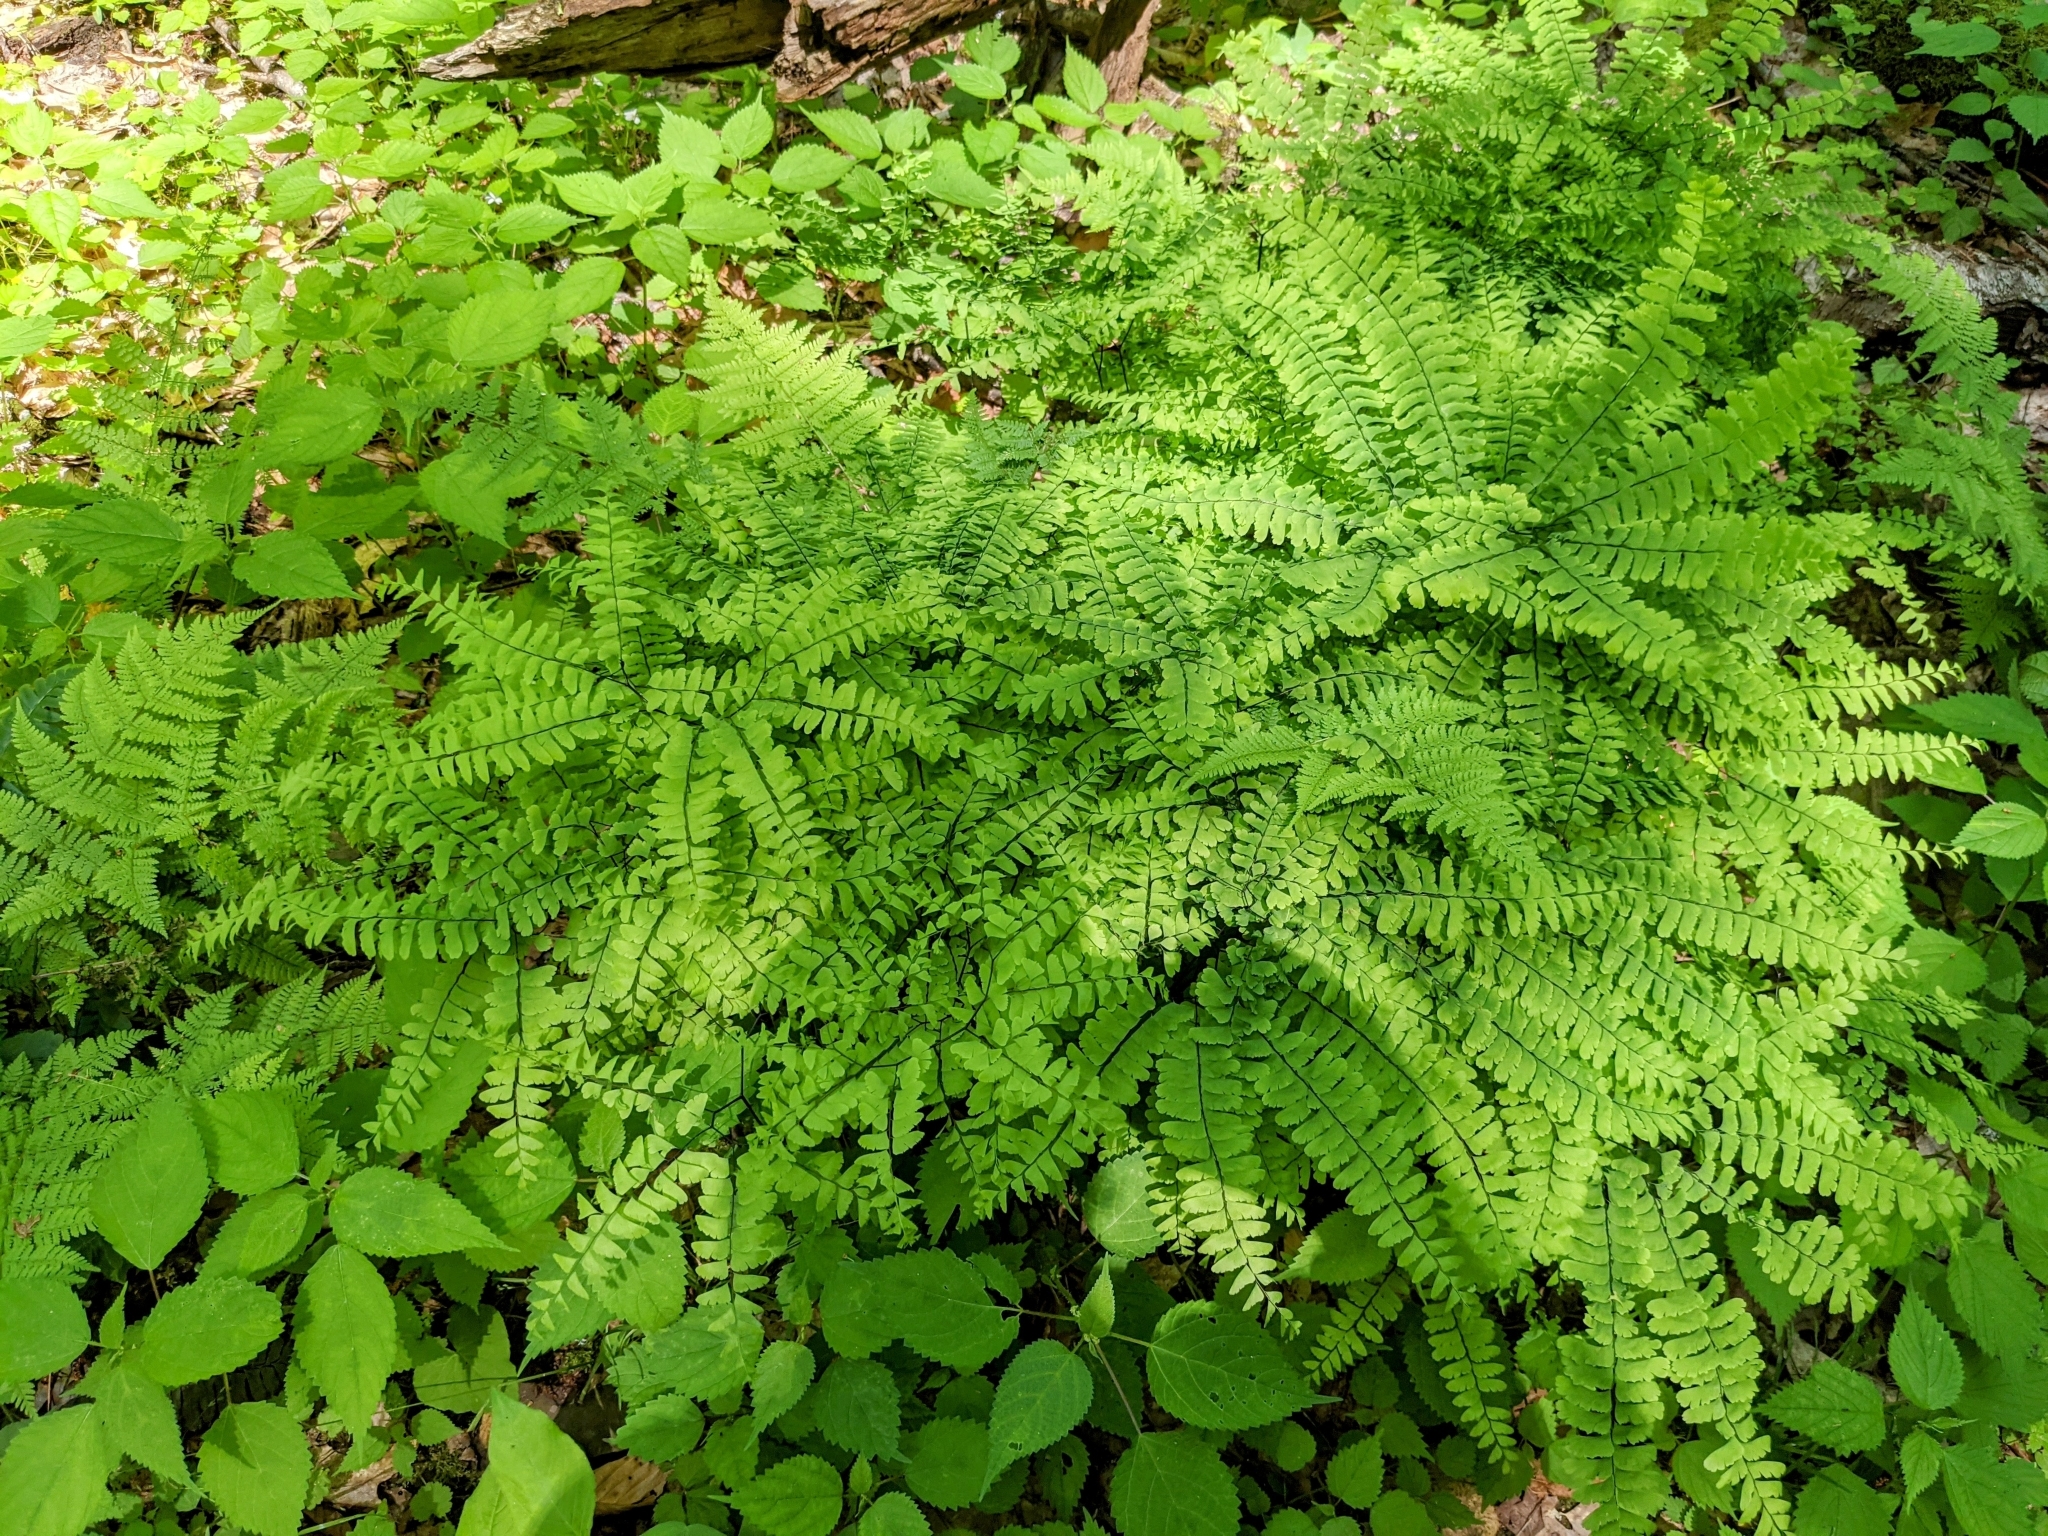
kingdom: Plantae
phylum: Tracheophyta
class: Polypodiopsida
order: Polypodiales
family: Pteridaceae
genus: Adiantum
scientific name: Adiantum pedatum
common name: Five-finger fern
